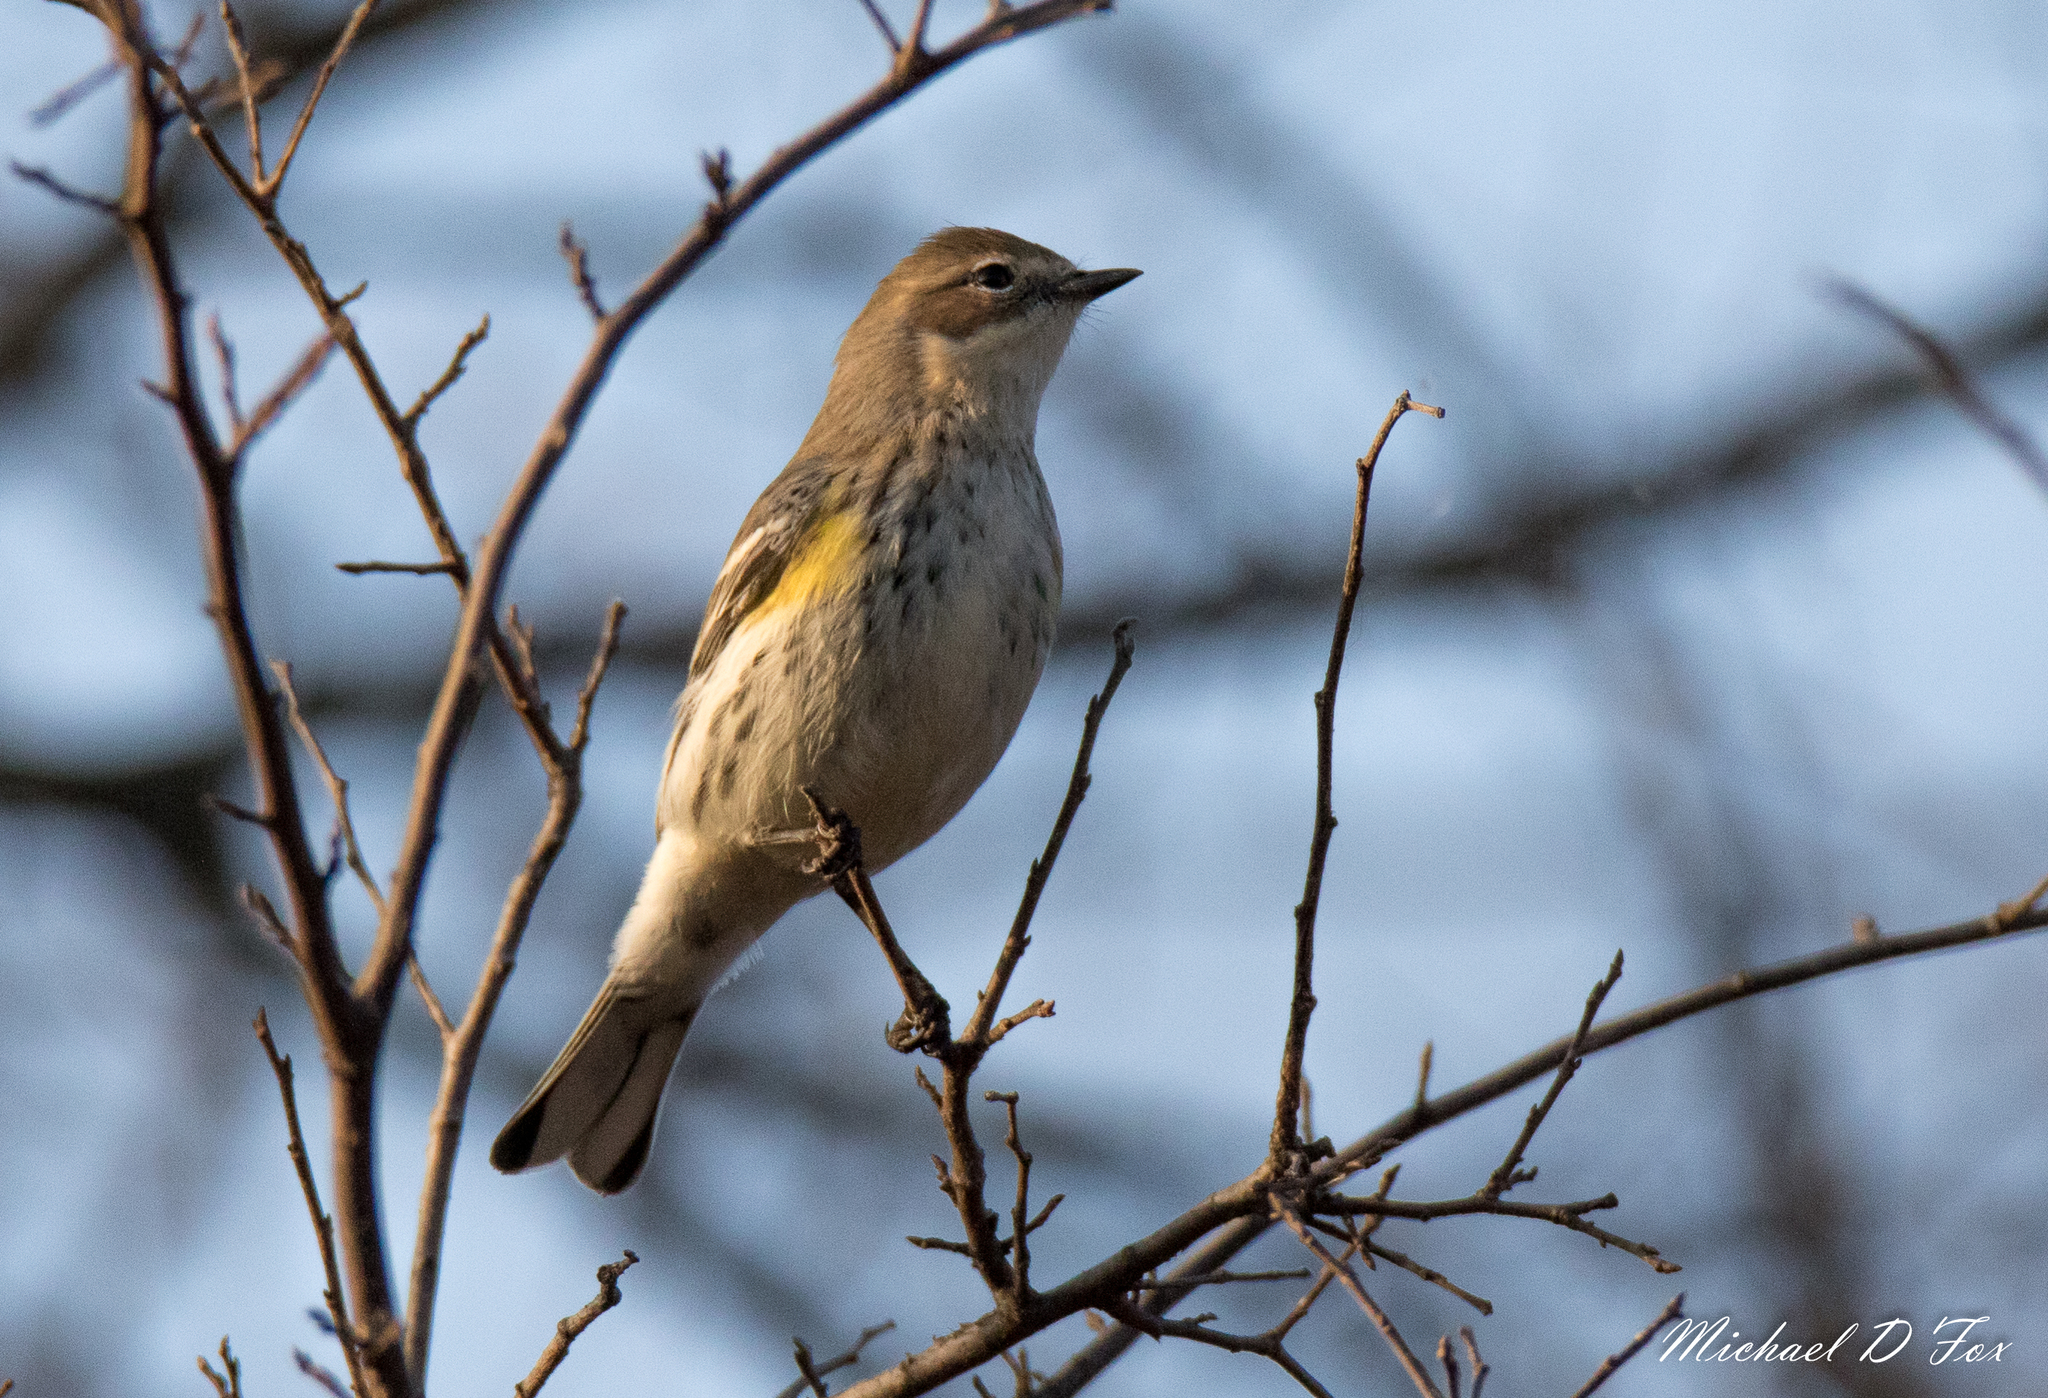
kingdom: Animalia
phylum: Chordata
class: Aves
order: Passeriformes
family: Parulidae
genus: Setophaga
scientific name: Setophaga coronata
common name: Myrtle warbler
